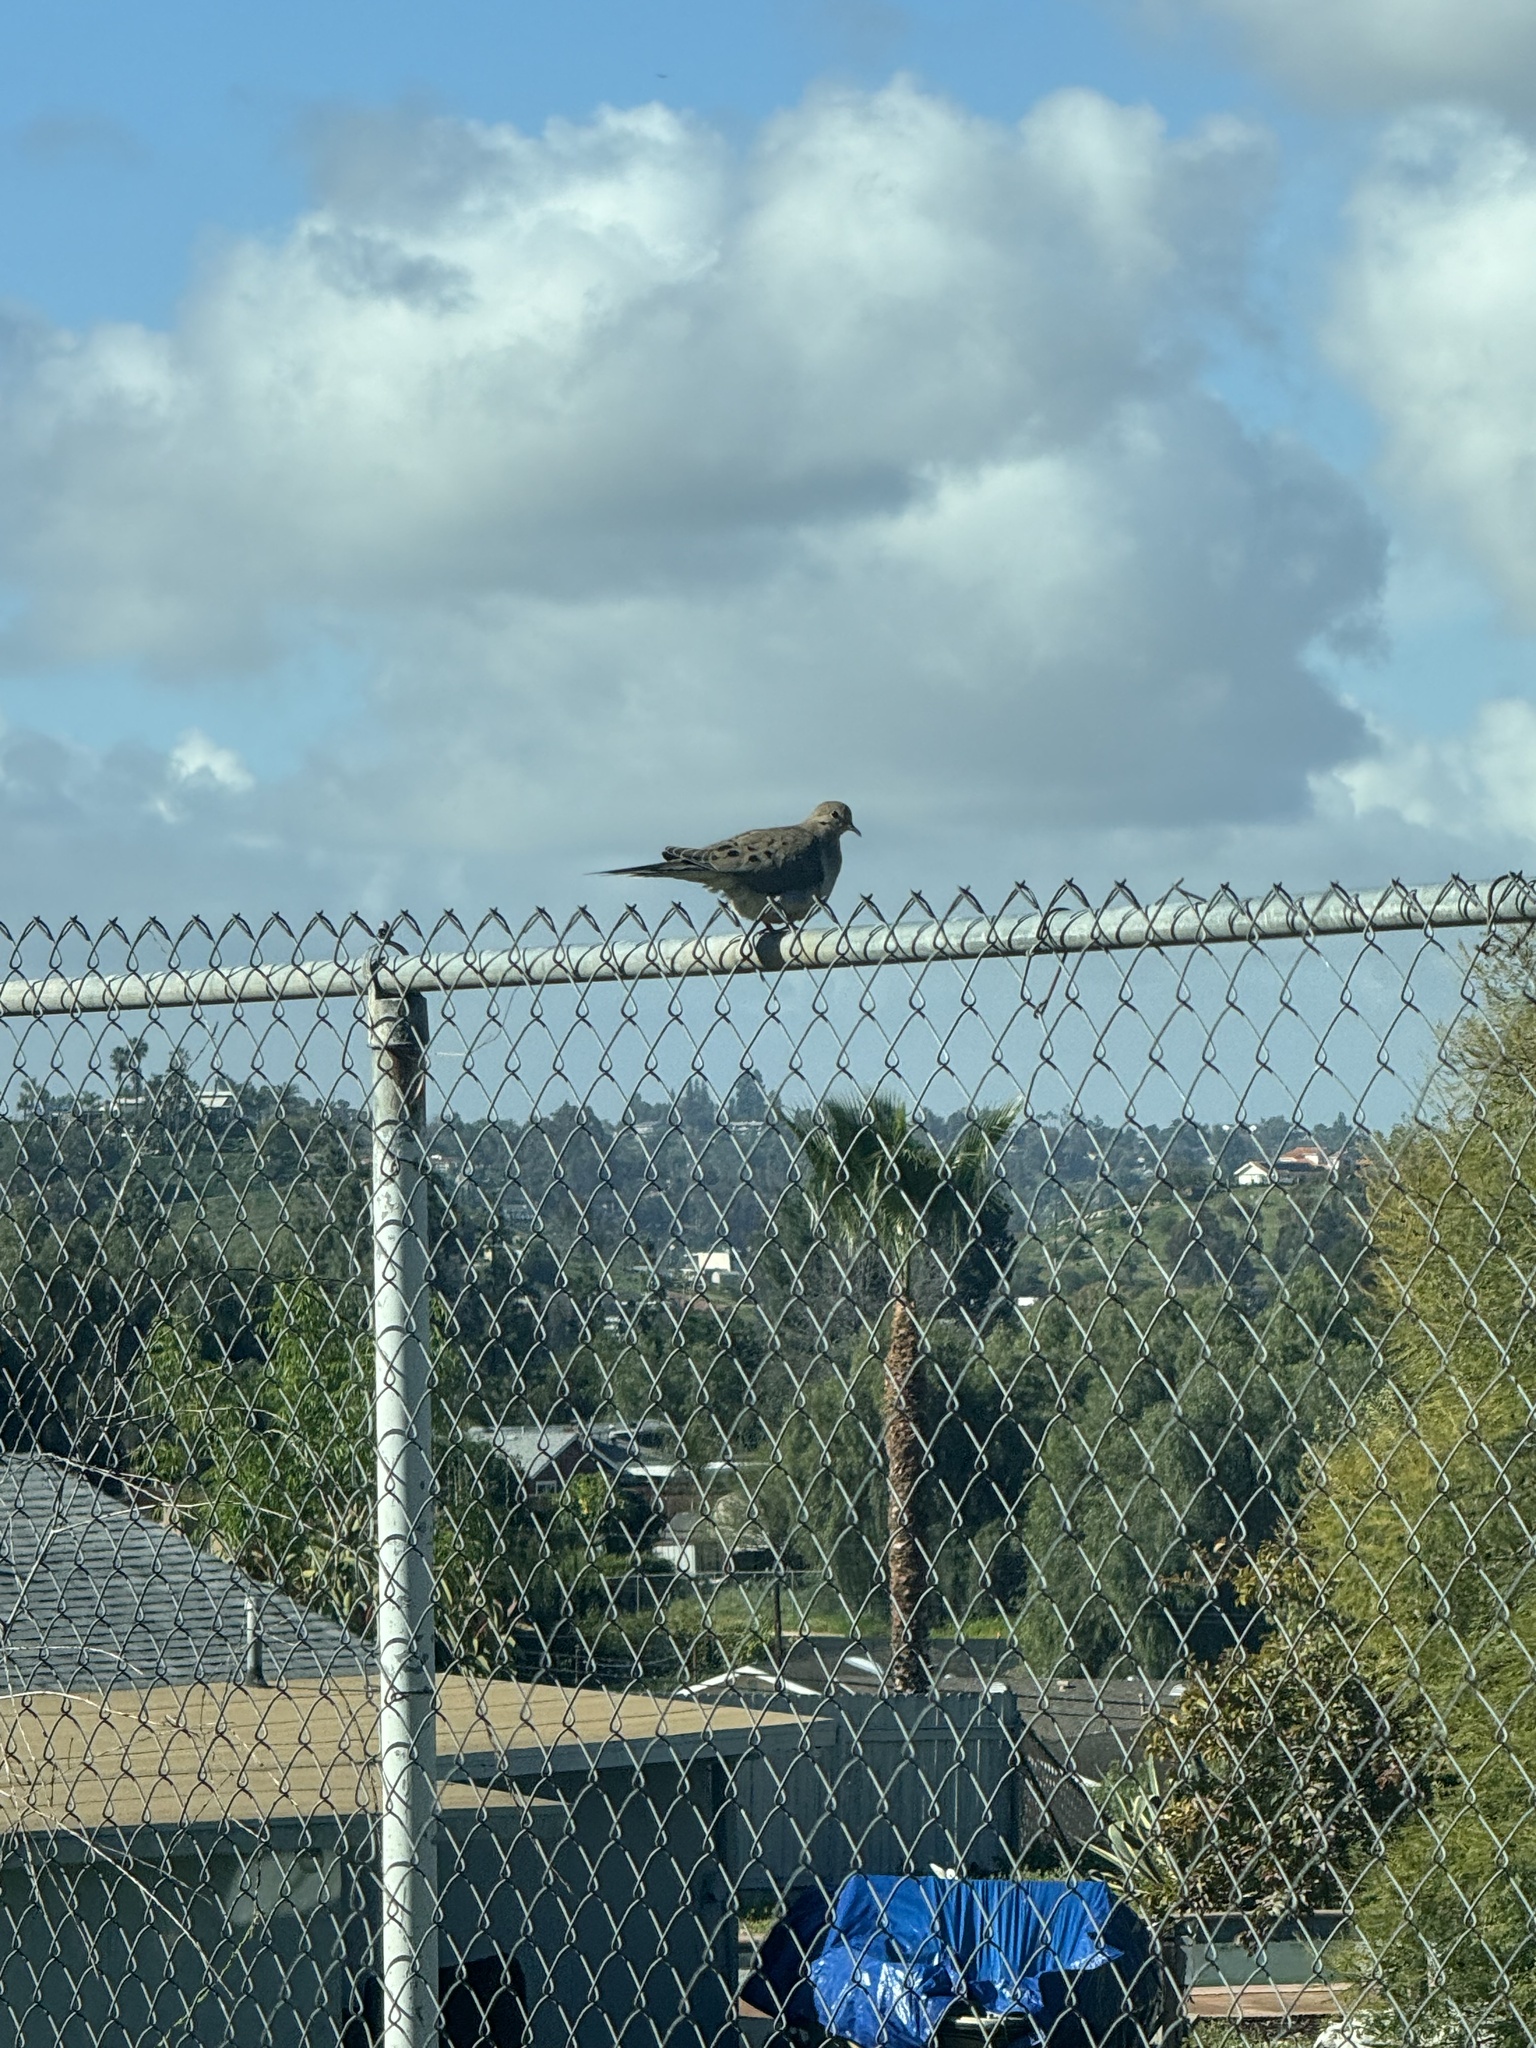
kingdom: Animalia
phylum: Chordata
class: Aves
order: Columbiformes
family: Columbidae
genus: Zenaida
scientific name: Zenaida macroura
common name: Mourning dove
